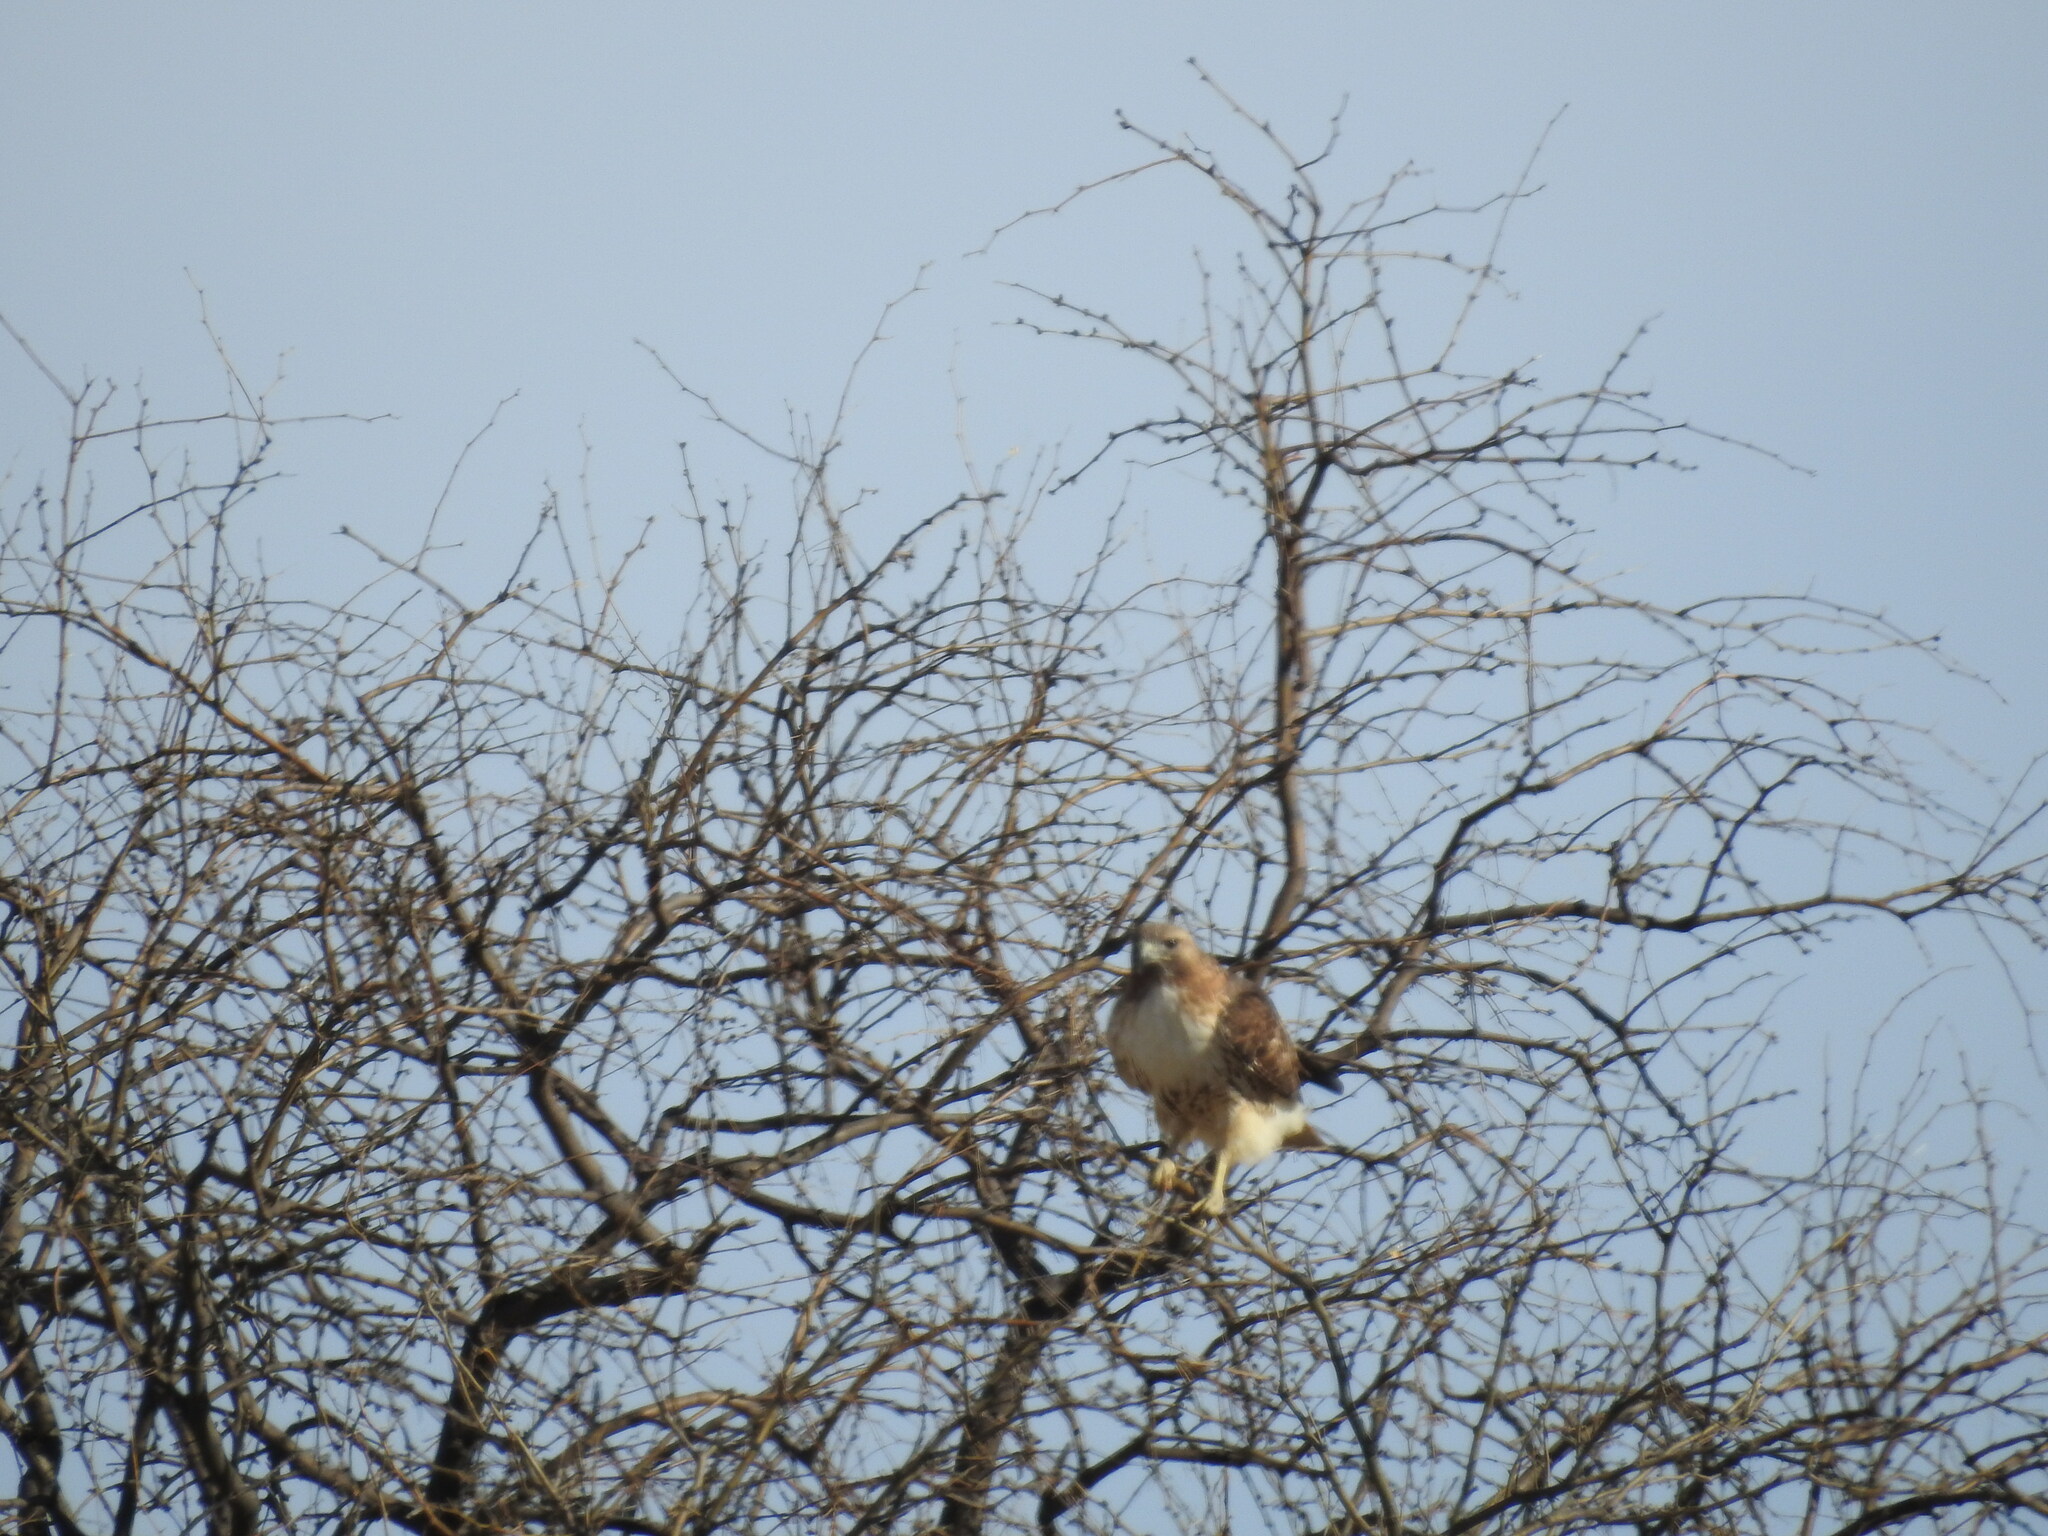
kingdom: Animalia
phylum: Chordata
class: Aves
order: Accipitriformes
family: Accipitridae
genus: Buteo
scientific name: Buteo jamaicensis
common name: Red-tailed hawk
